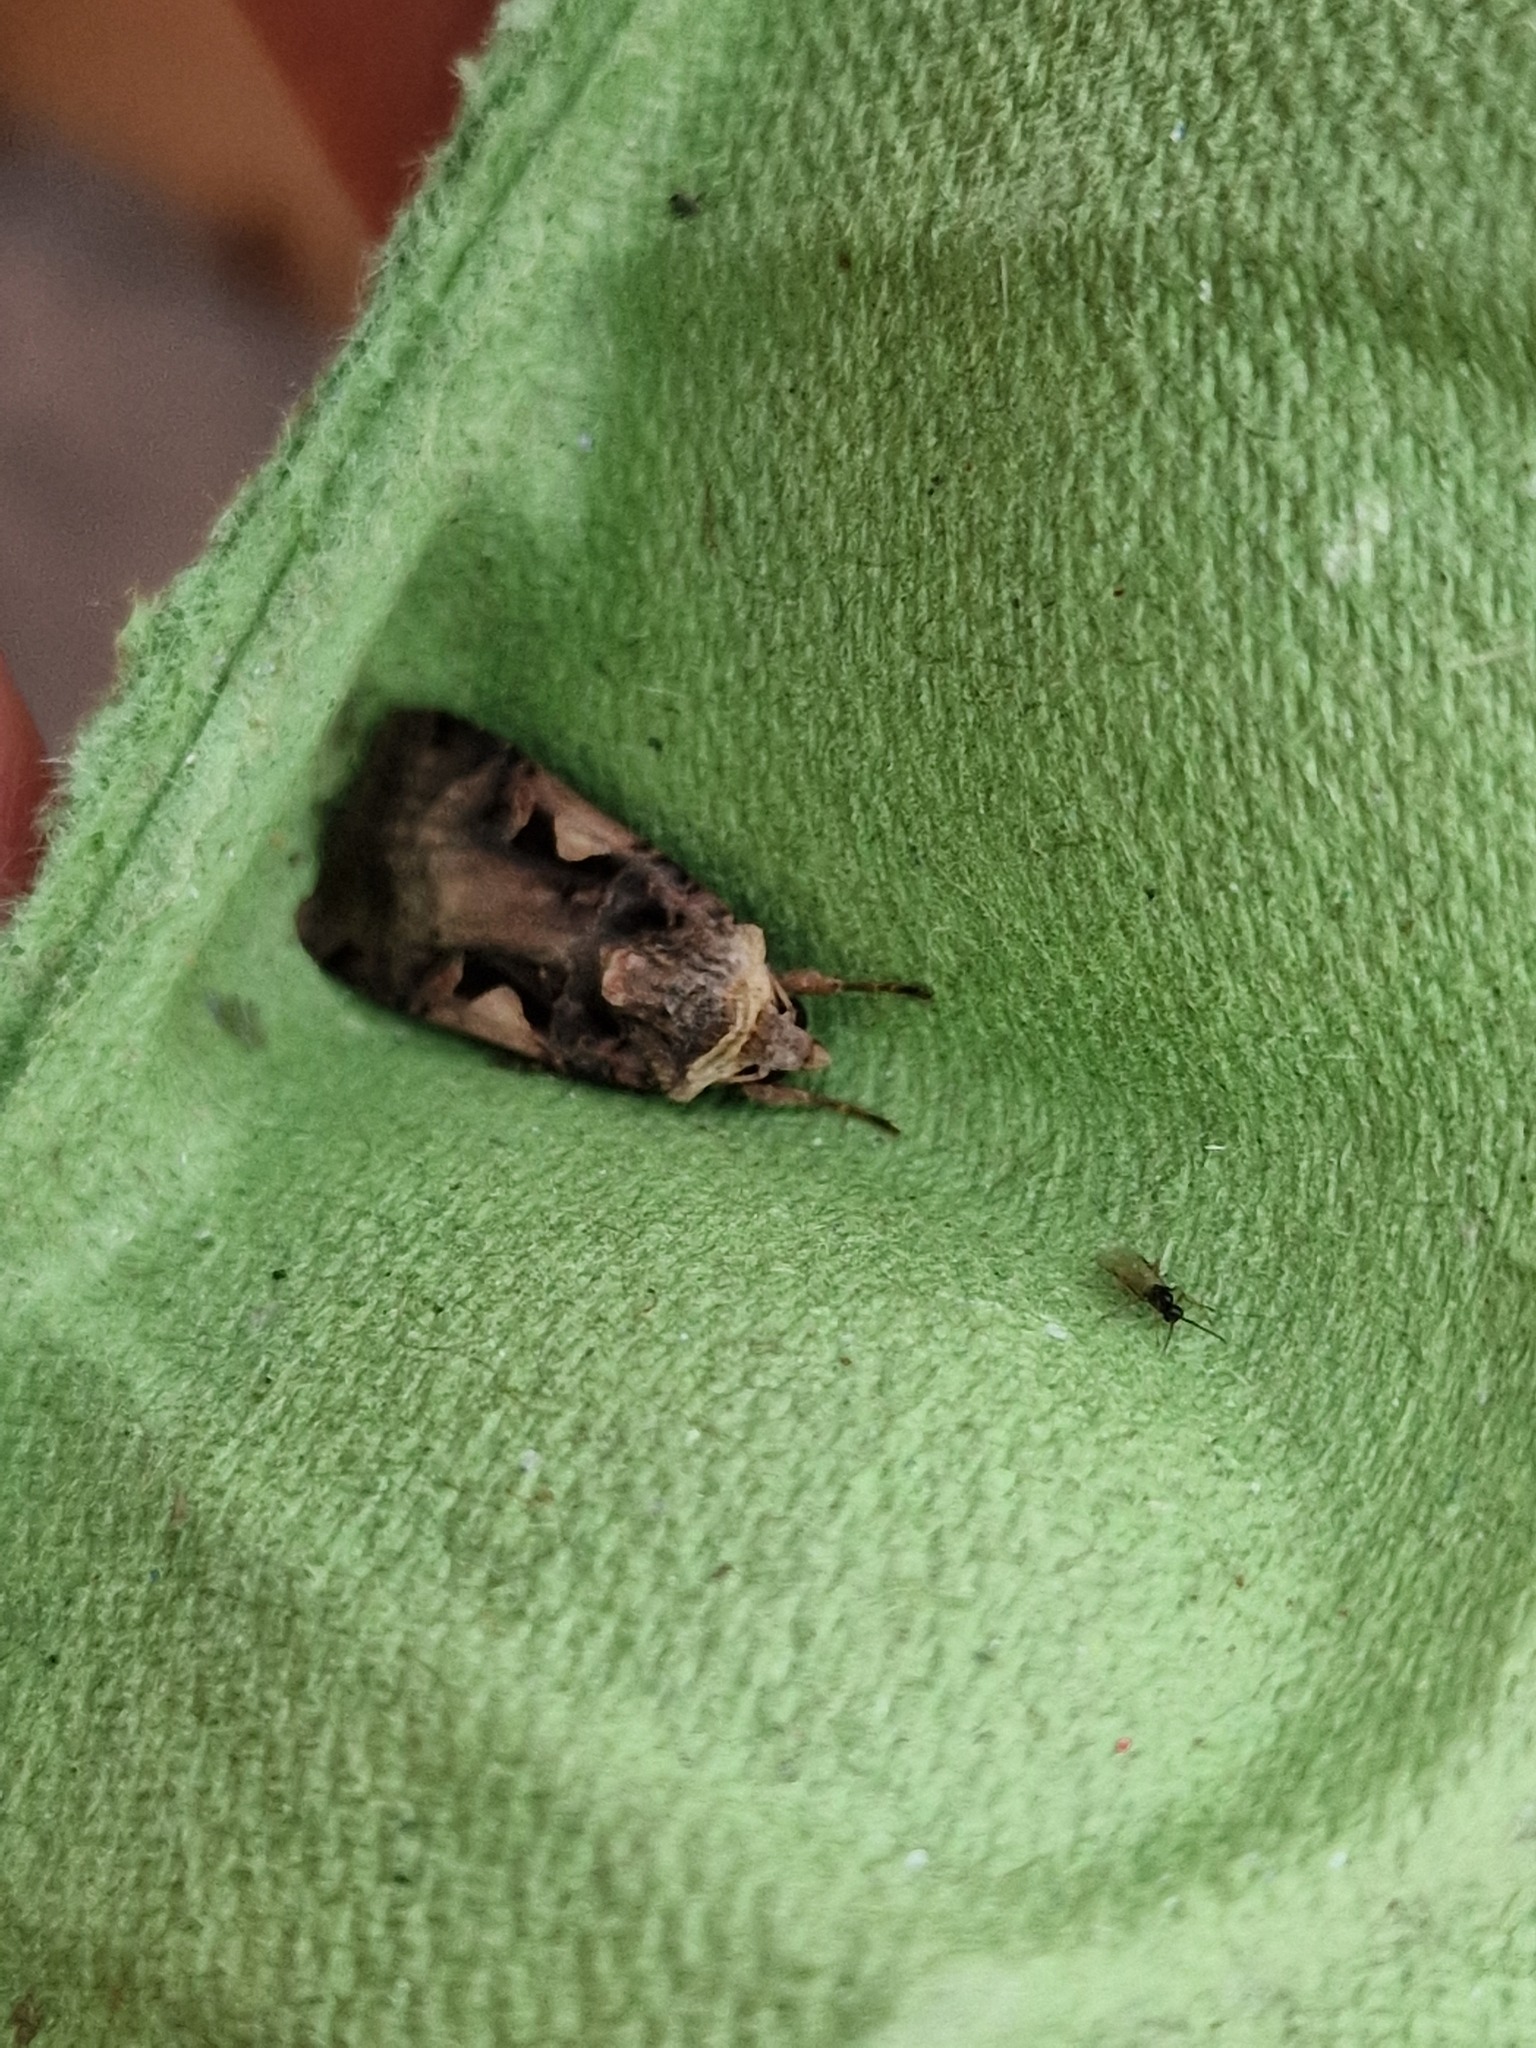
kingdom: Animalia
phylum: Arthropoda
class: Insecta
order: Lepidoptera
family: Noctuidae
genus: Xestia
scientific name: Xestia c-nigrum
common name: Setaceous hebrew character
